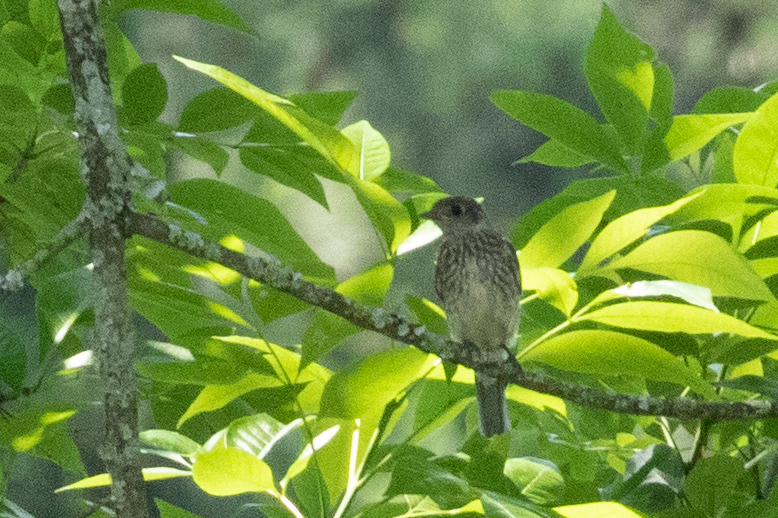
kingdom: Animalia
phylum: Chordata
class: Aves
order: Passeriformes
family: Turdidae
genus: Sialia
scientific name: Sialia sialis
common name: Eastern bluebird
